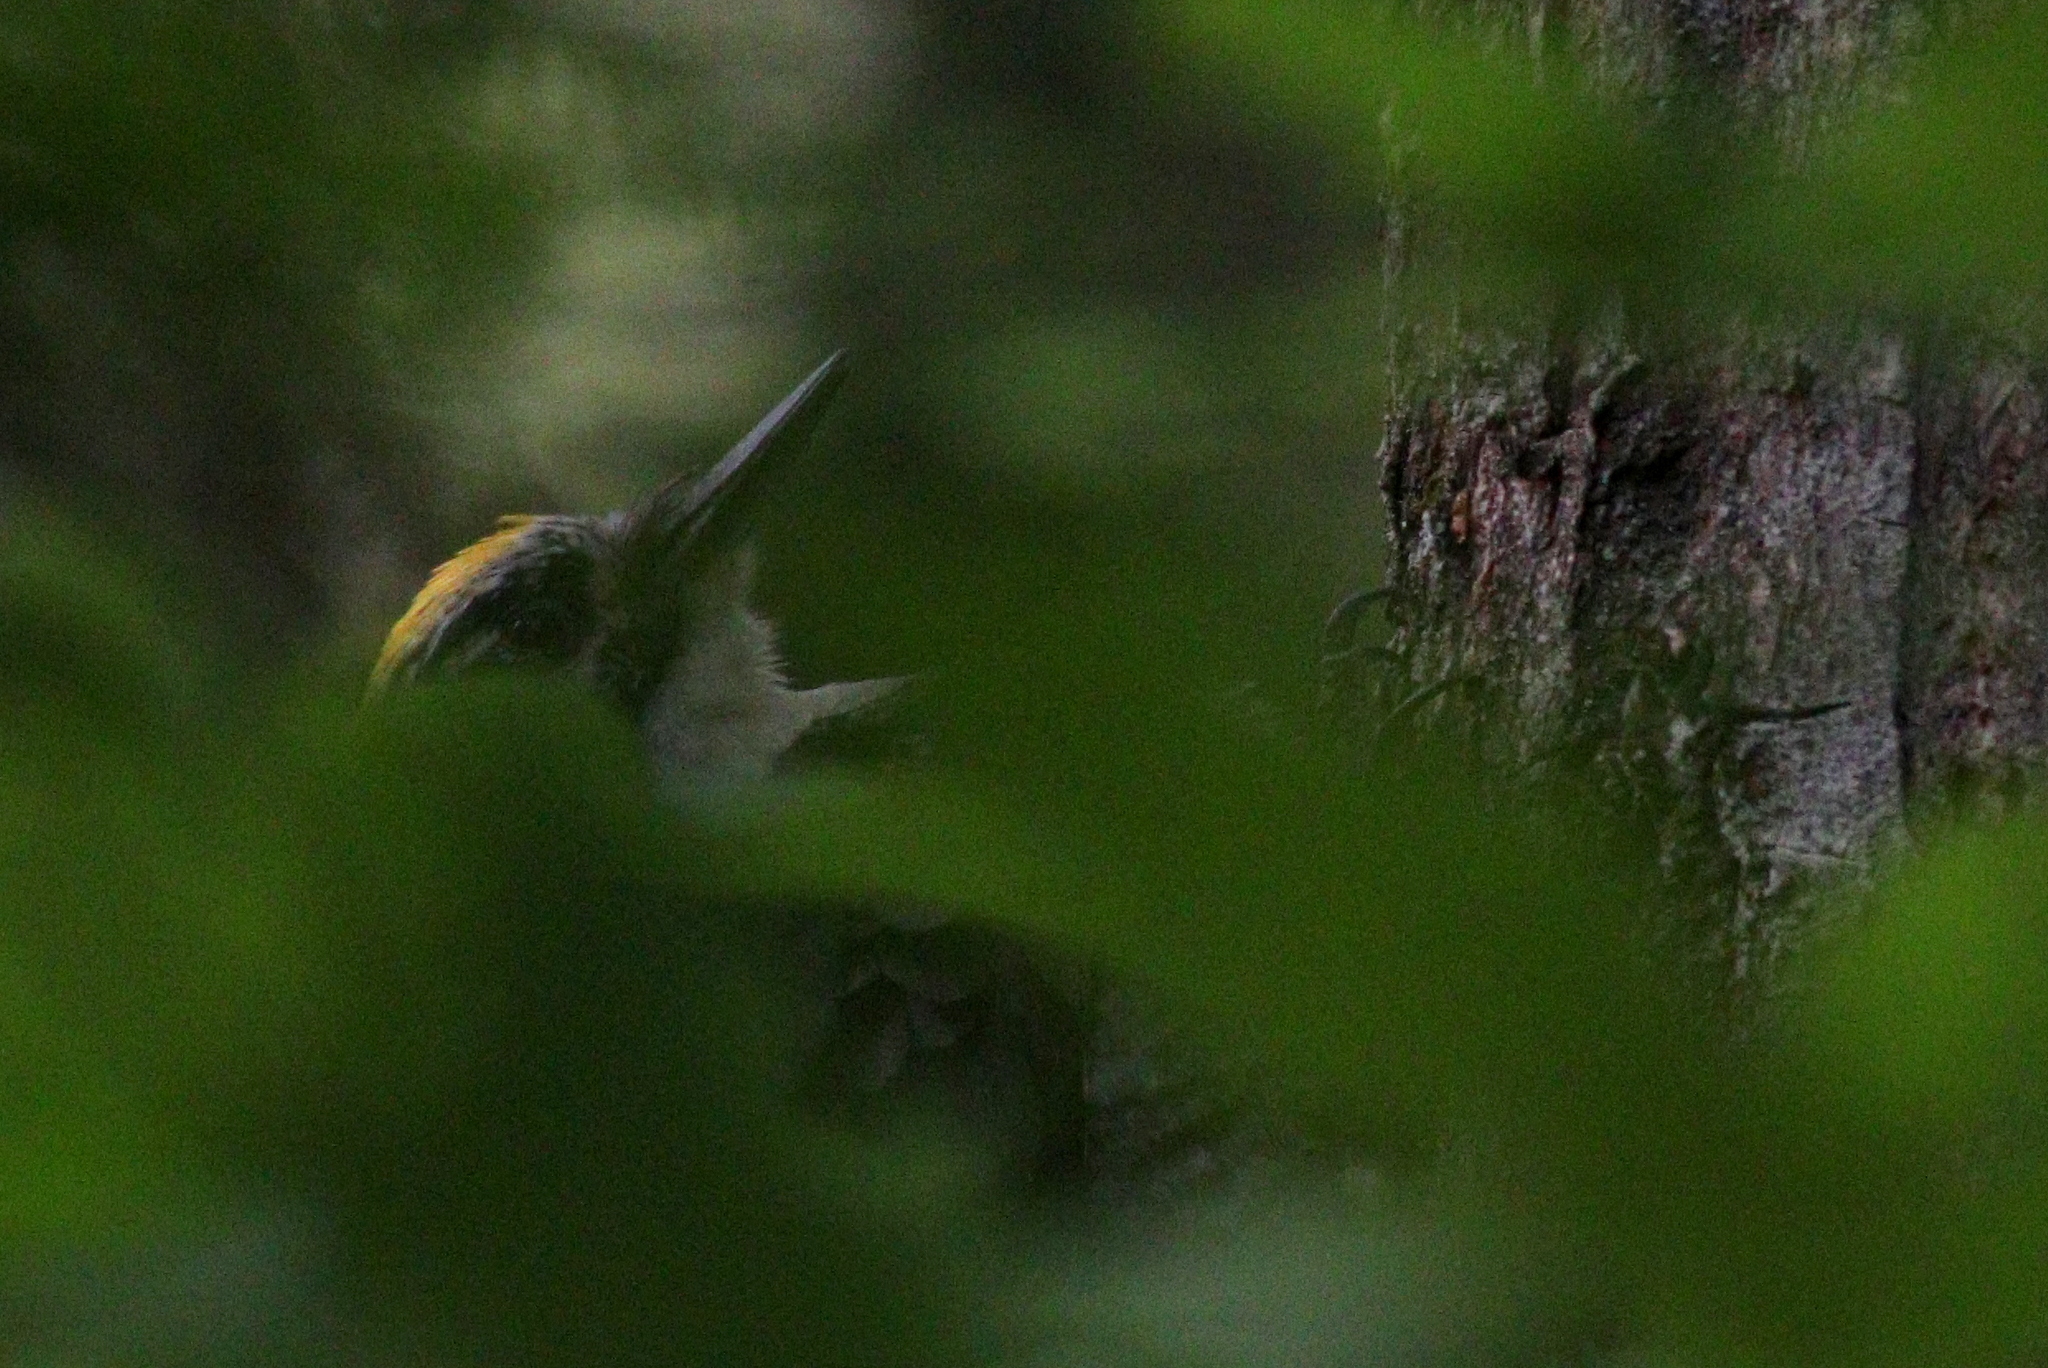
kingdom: Animalia
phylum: Chordata
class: Aves
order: Piciformes
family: Picidae
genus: Picoides
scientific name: Picoides tridactylus
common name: Eurasian three-toed woodpecker
